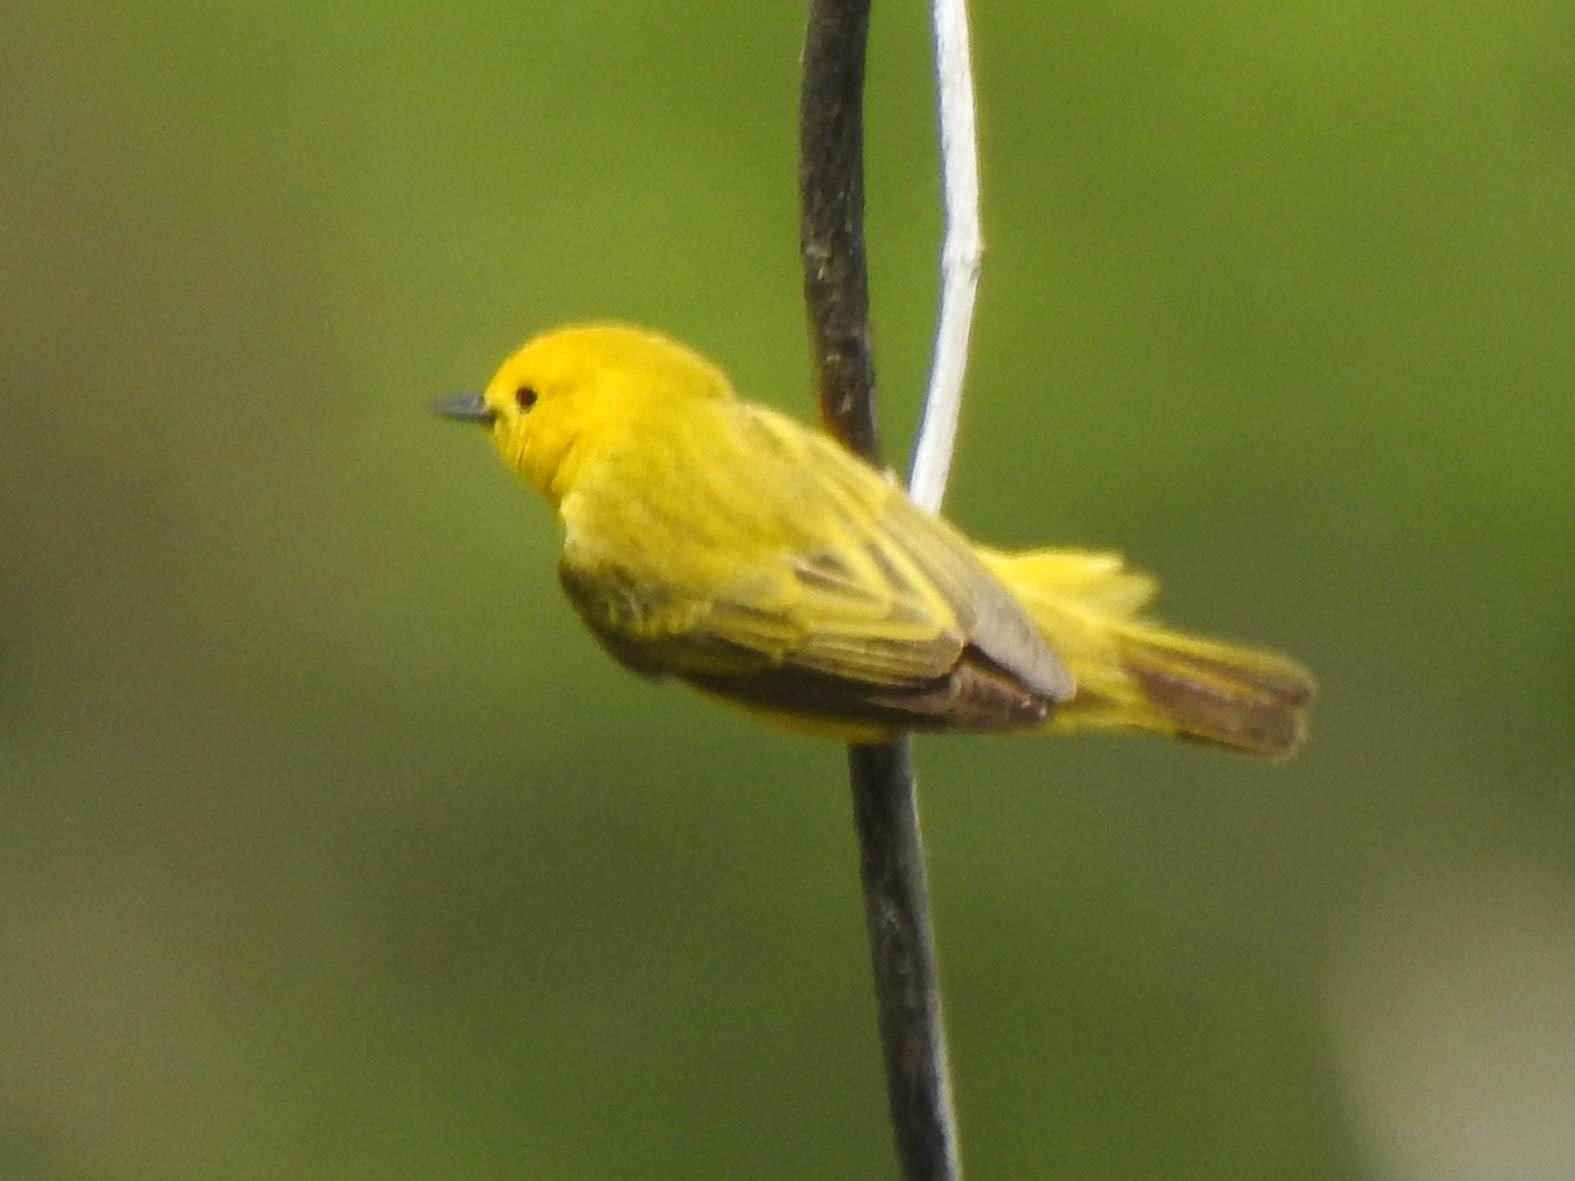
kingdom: Animalia
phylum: Chordata
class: Aves
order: Passeriformes
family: Parulidae
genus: Setophaga
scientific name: Setophaga petechia
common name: Yellow warbler
